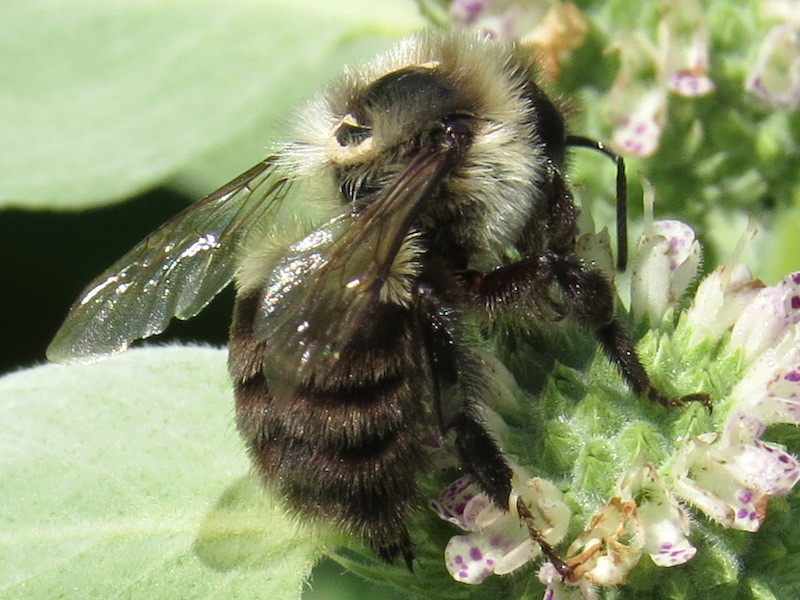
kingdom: Animalia
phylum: Arthropoda
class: Insecta
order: Hymenoptera
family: Apidae
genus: Bombus
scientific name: Bombus impatiens
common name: Common eastern bumble bee
